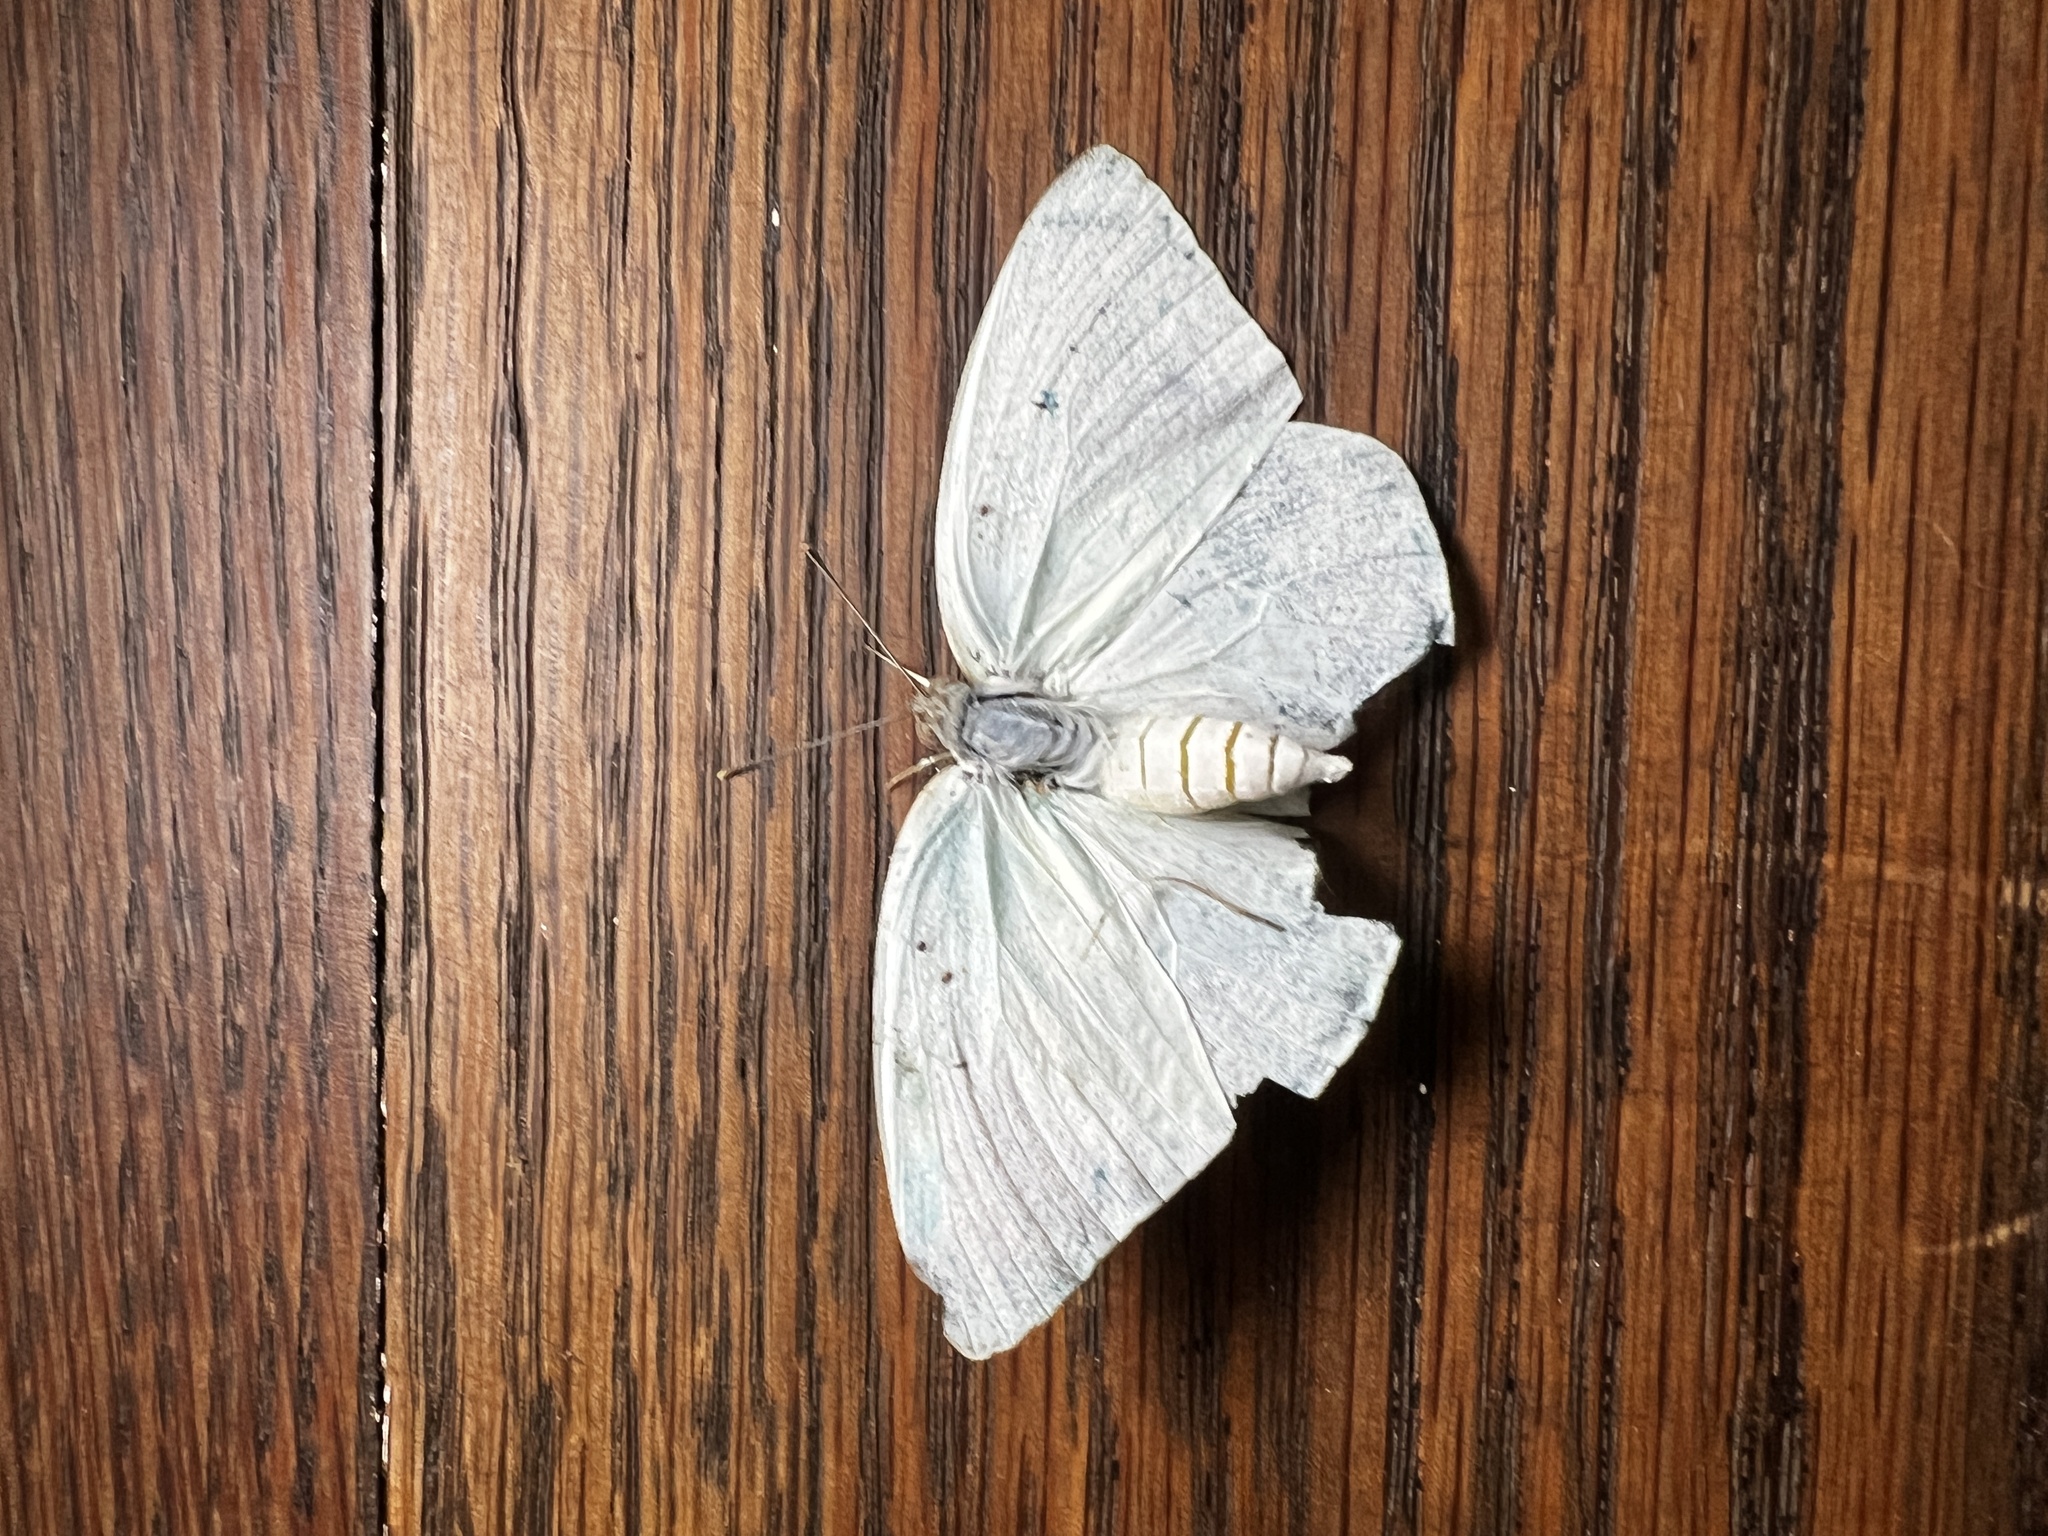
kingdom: Animalia
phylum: Arthropoda
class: Insecta
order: Lepidoptera
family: Pieridae
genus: Catopsilia
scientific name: Catopsilia florella
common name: African migrant
